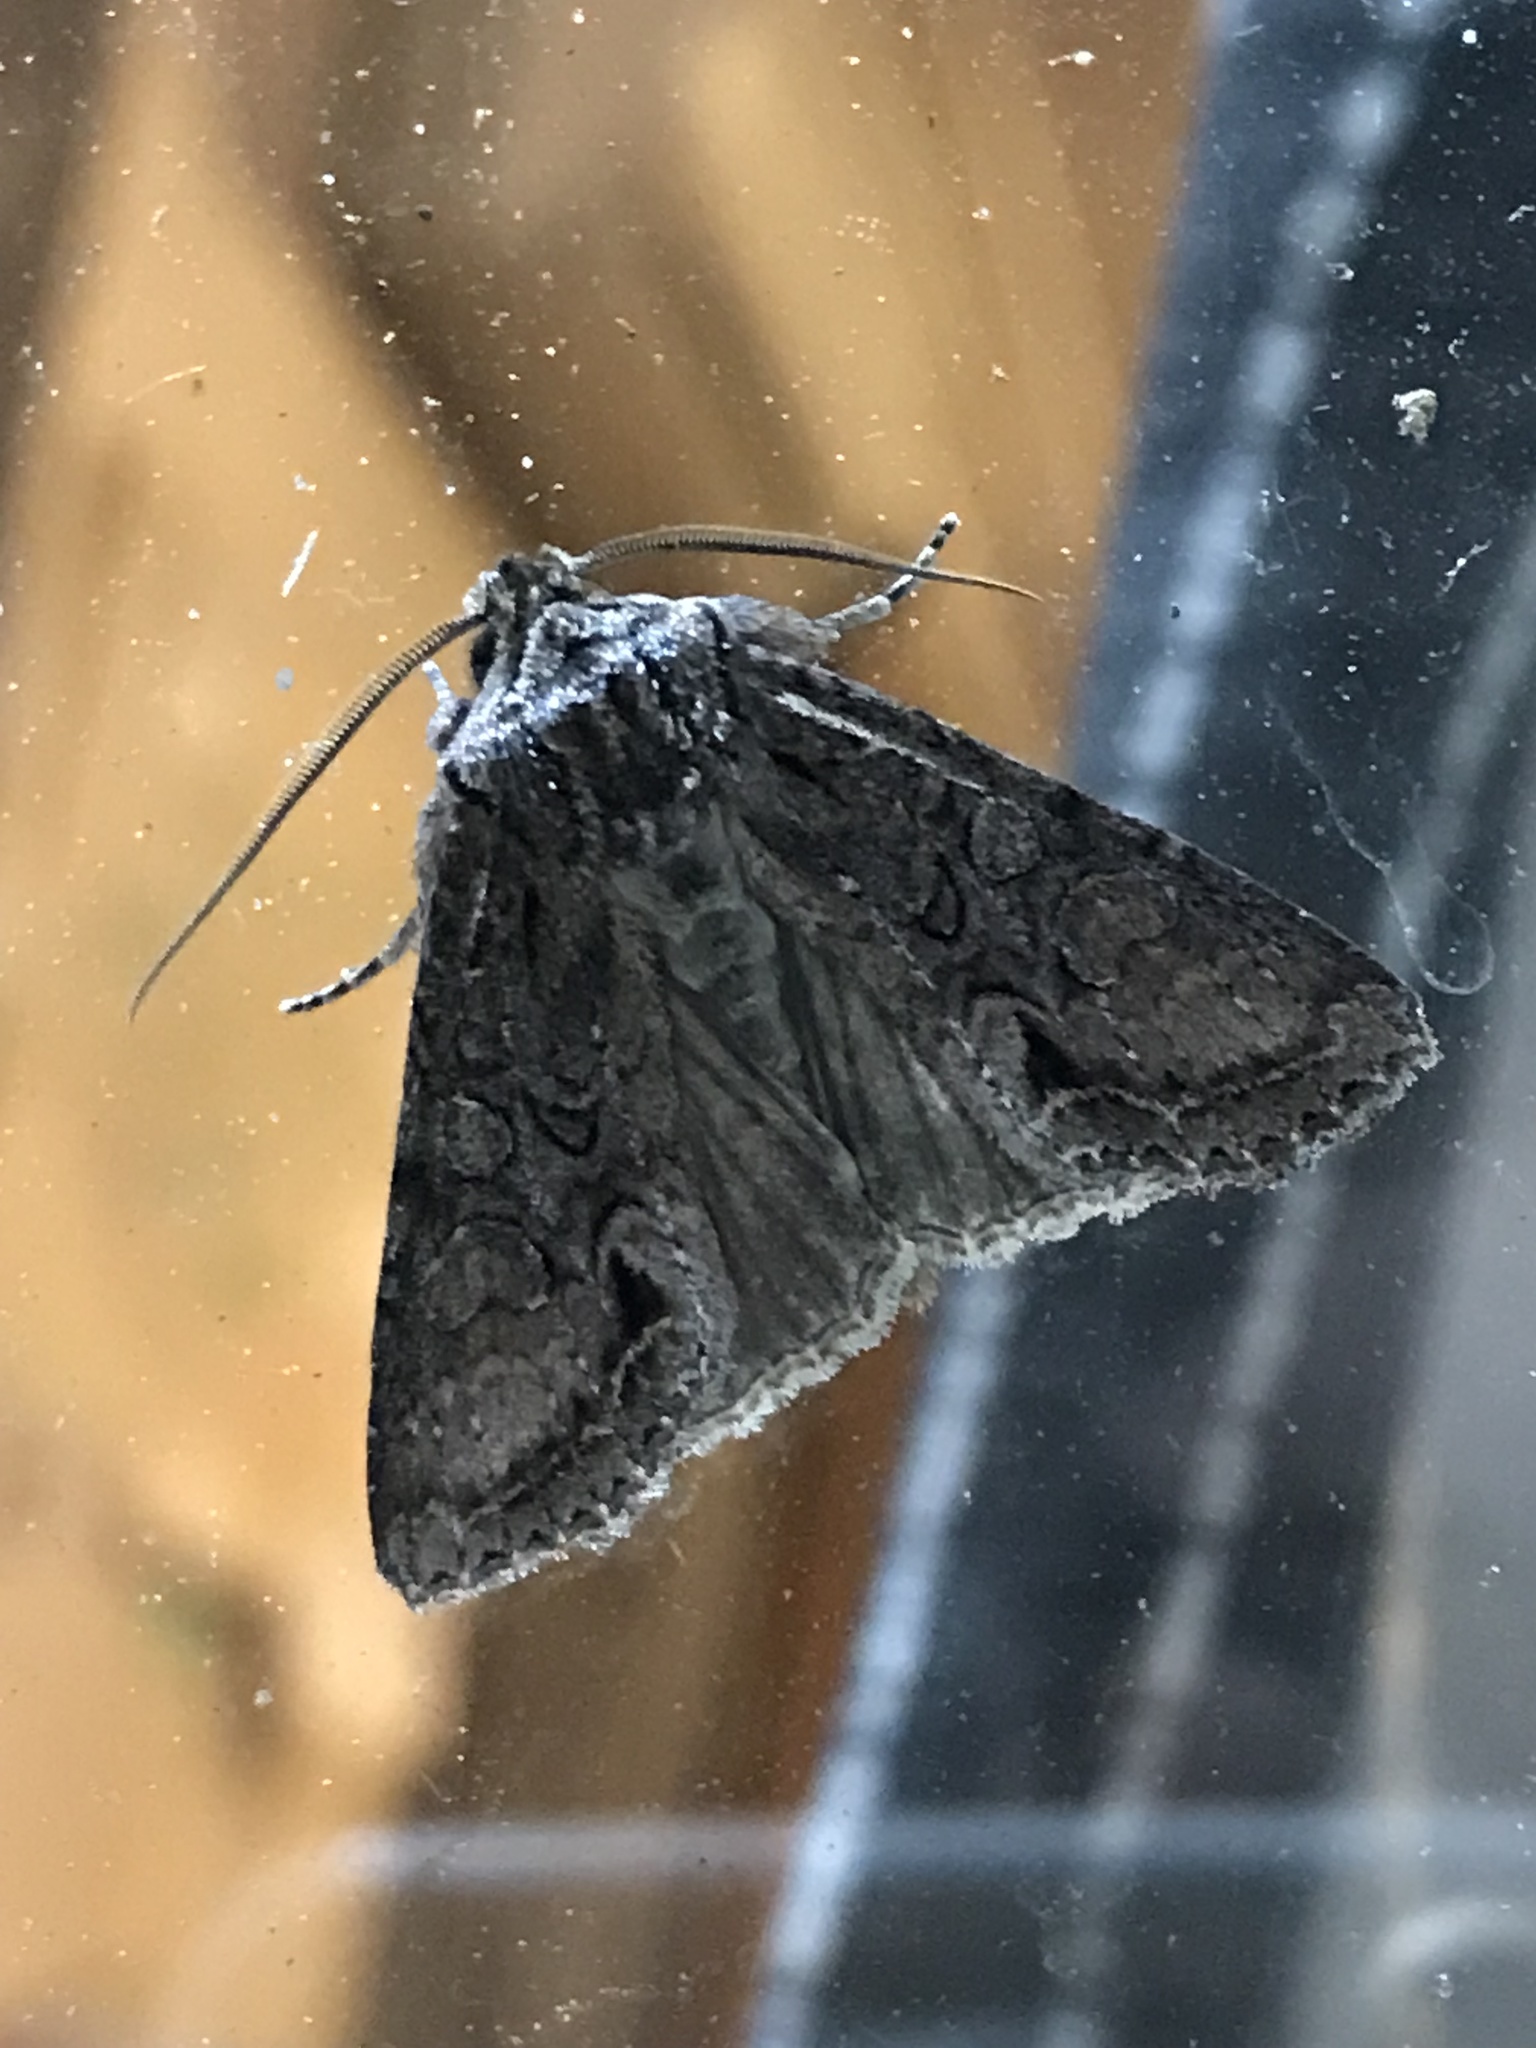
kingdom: Animalia
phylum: Arthropoda
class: Insecta
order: Lepidoptera
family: Noctuidae
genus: Ichneutica
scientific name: Ichneutica mutans
